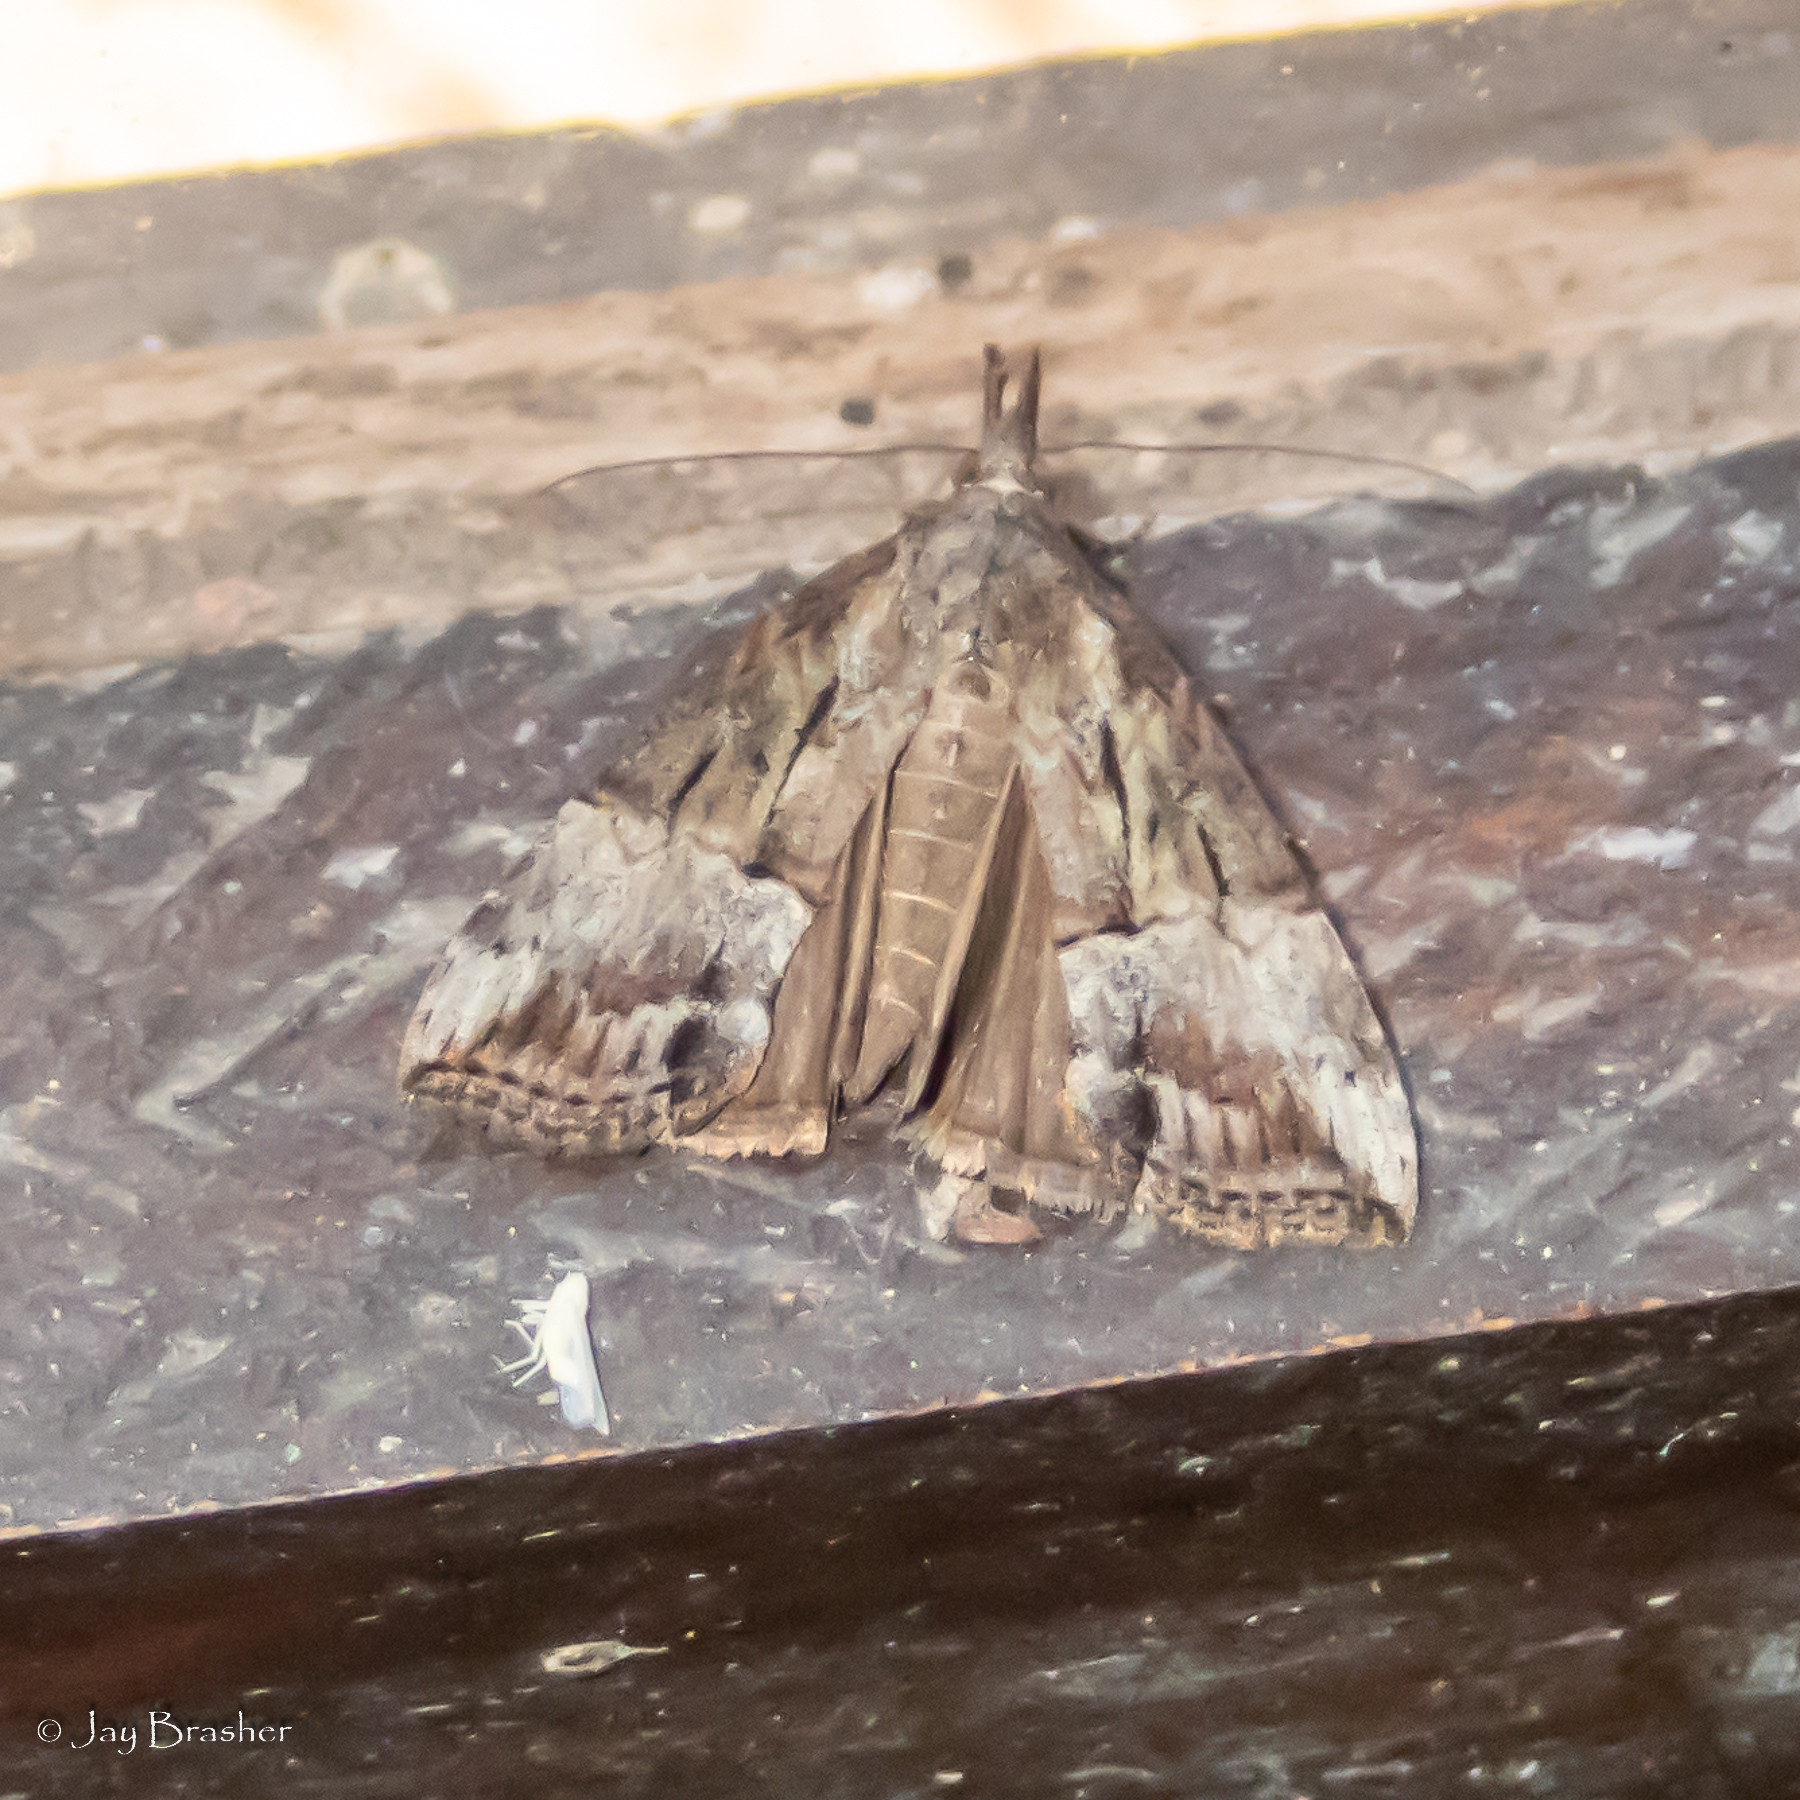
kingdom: Animalia
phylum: Arthropoda
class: Insecta
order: Lepidoptera
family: Erebidae
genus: Hypena
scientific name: Hypena scabra
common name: Green cloverworm
